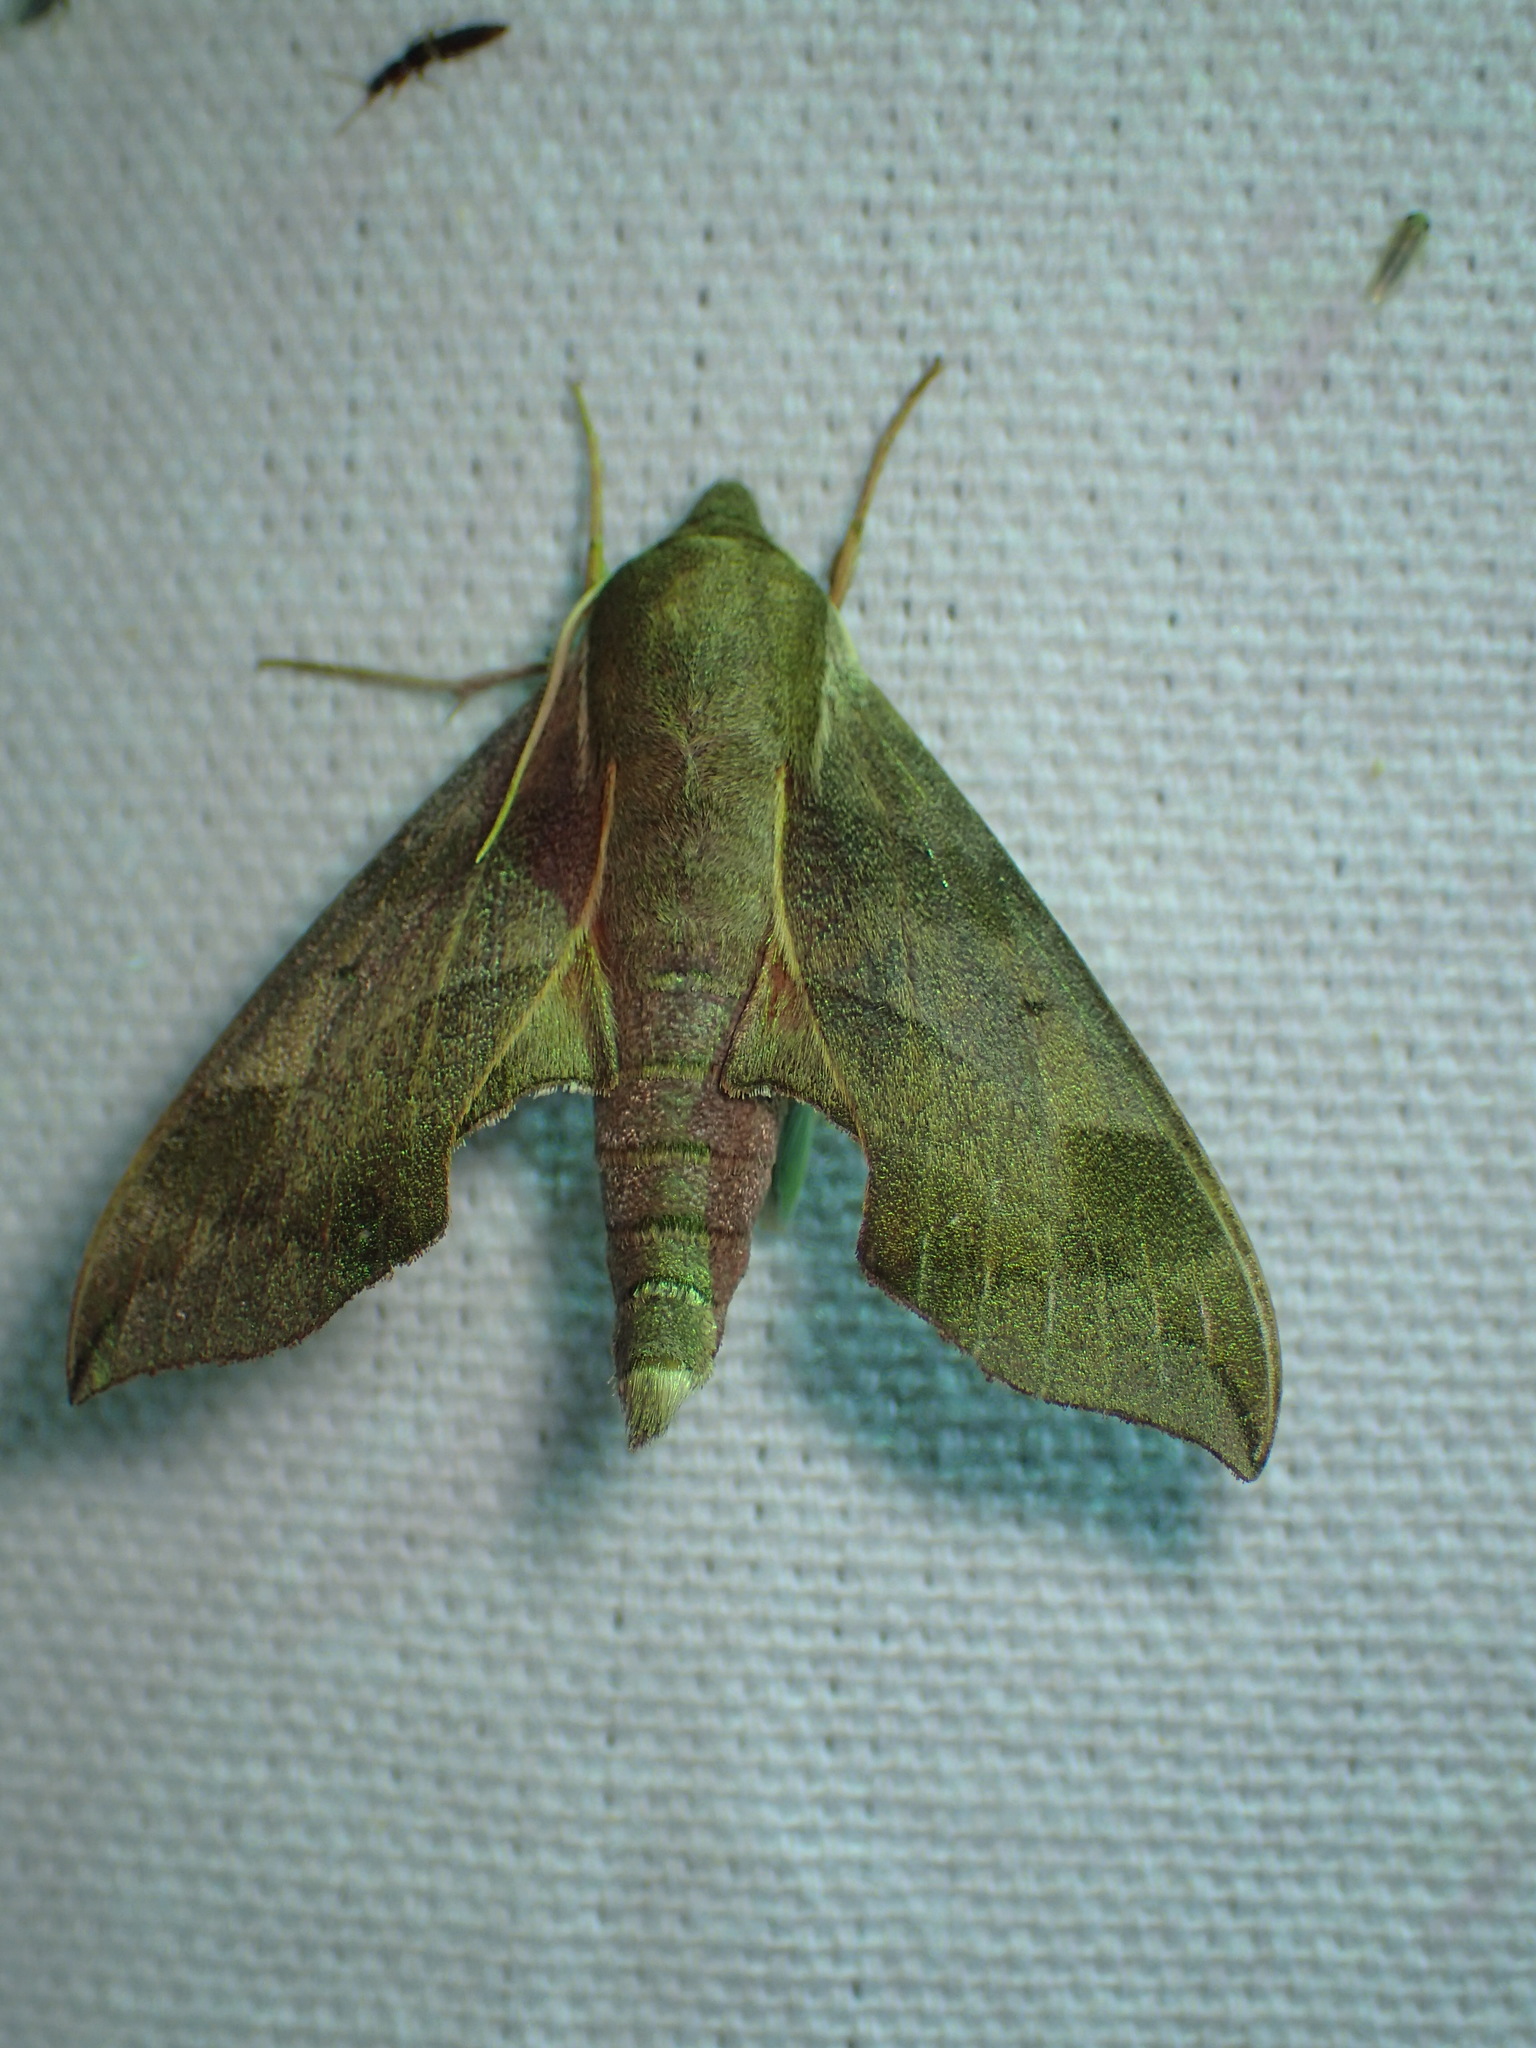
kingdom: Animalia
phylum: Arthropoda
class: Insecta
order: Lepidoptera
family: Sphingidae
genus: Darapsa
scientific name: Darapsa myron
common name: Hog sphinx
